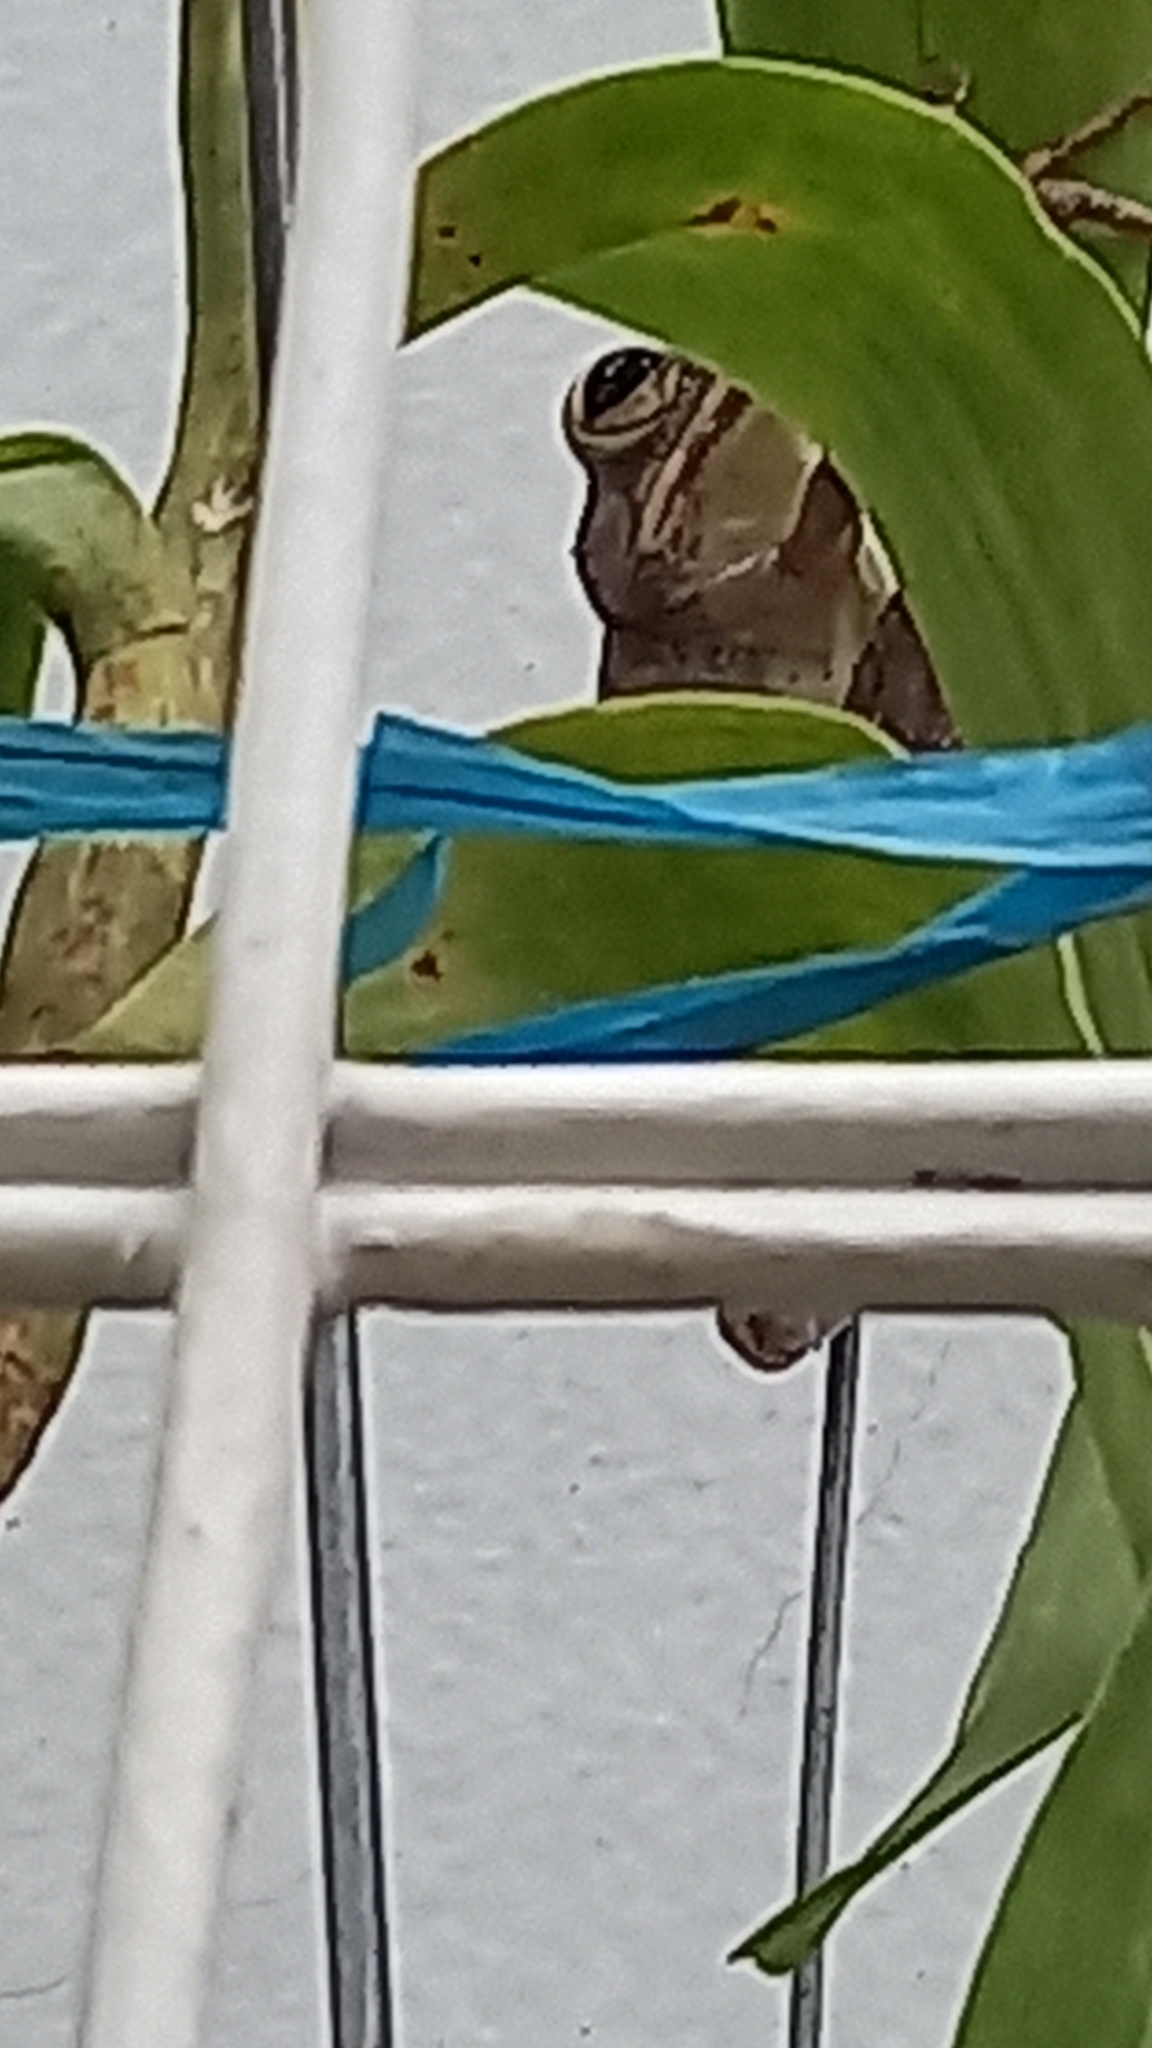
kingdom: Animalia
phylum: Chordata
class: Amphibia
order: Anura
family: Rhacophoridae
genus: Polypedates
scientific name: Polypedates megacephalus
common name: Hong kong whipping frog
